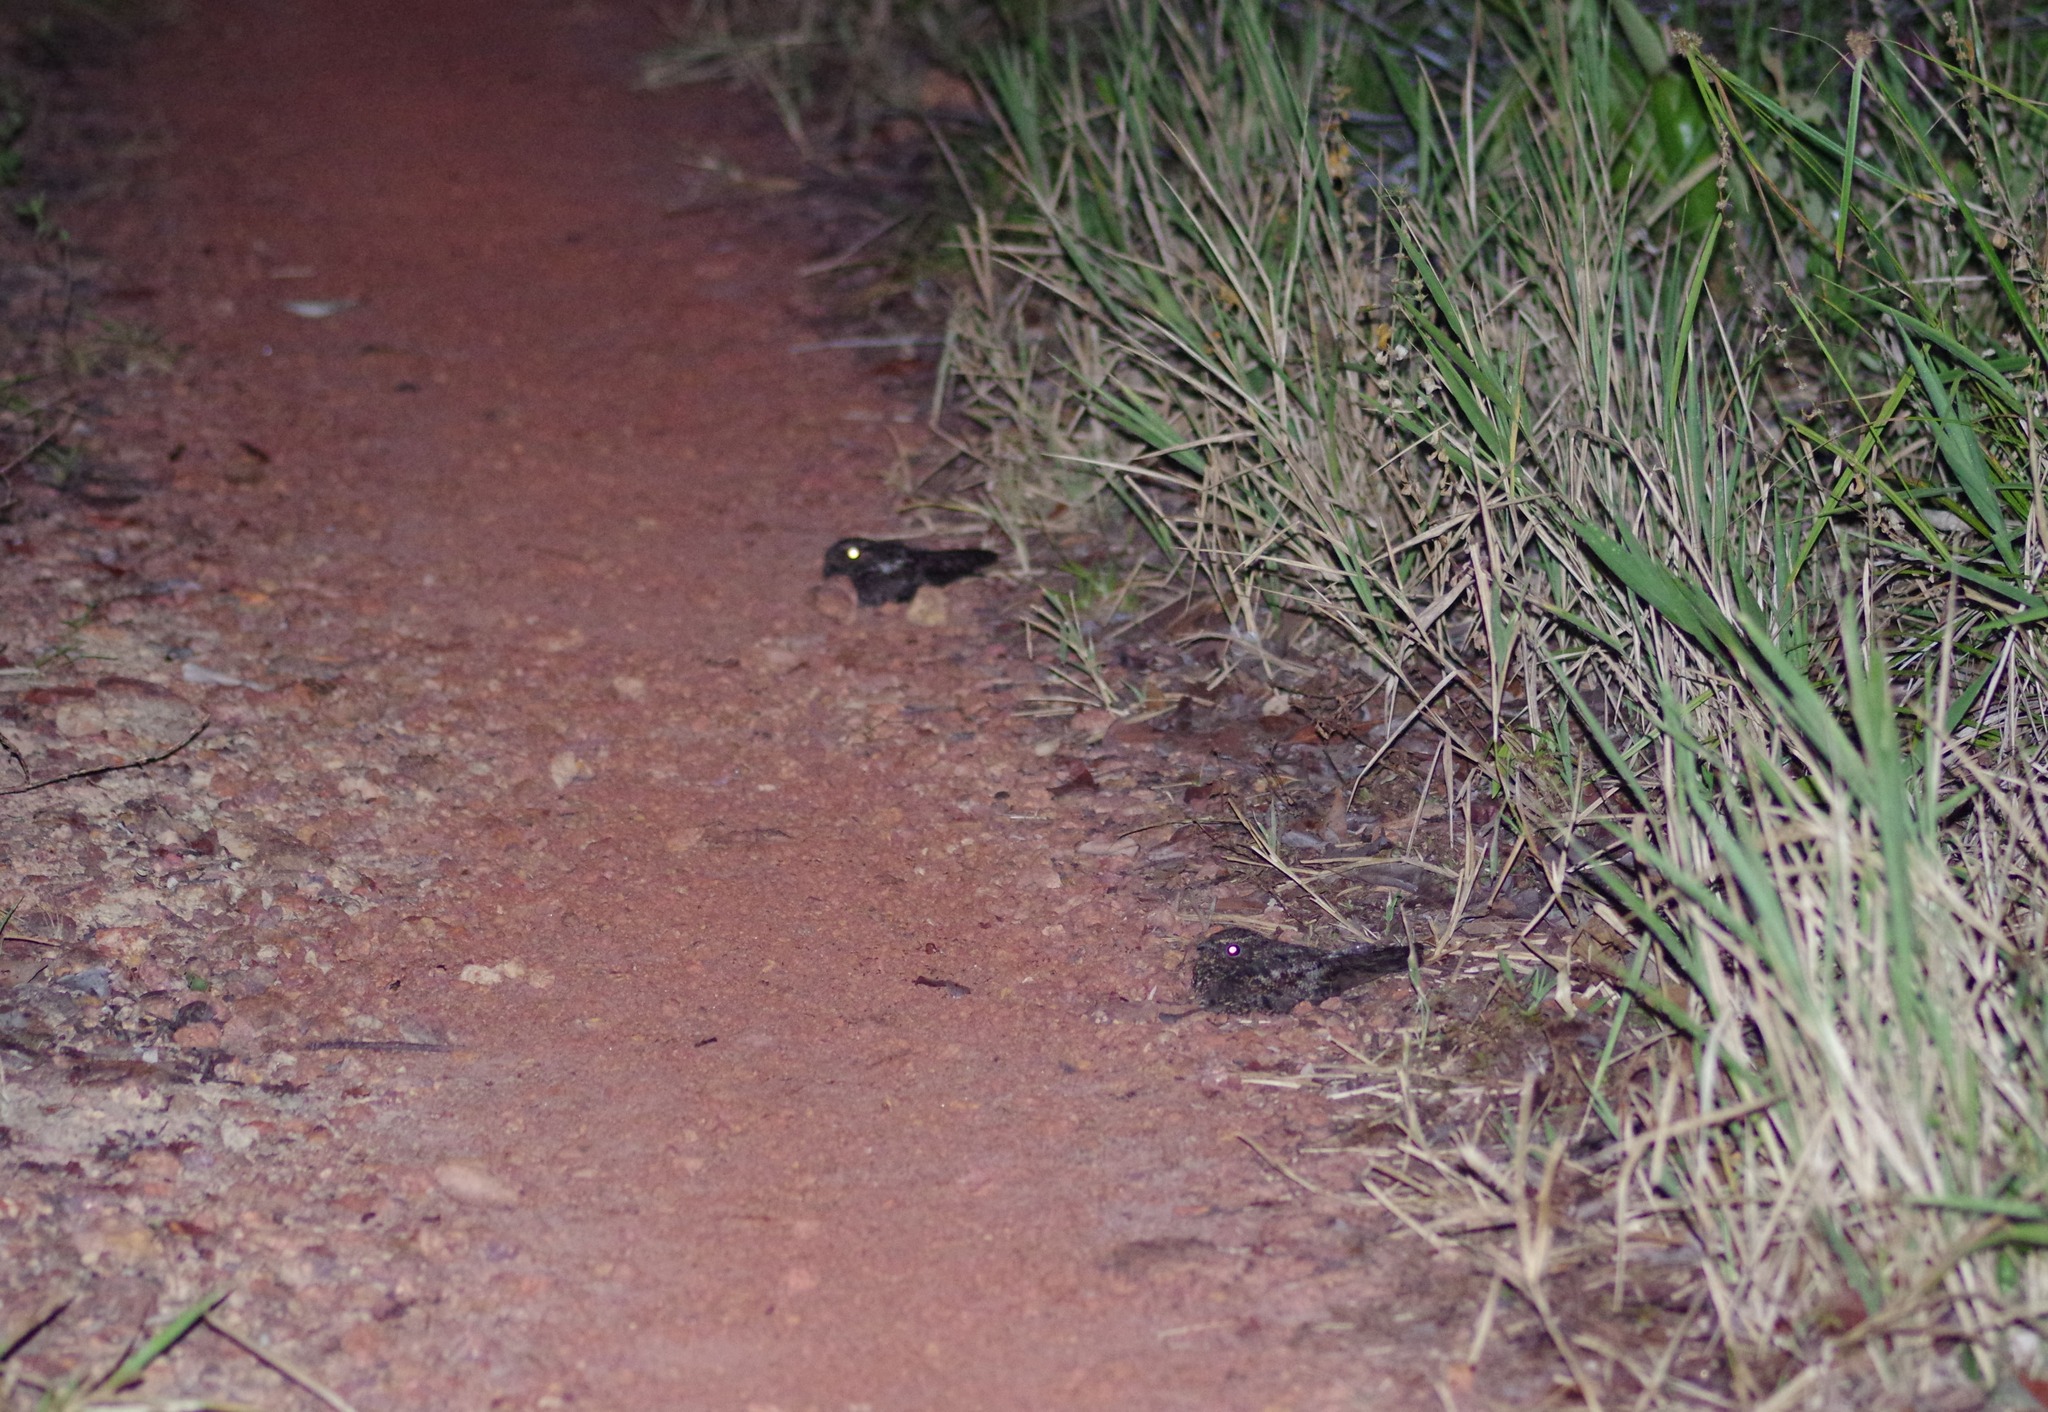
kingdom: Animalia
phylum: Chordata
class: Aves
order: Caprimulgiformes
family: Caprimulgidae
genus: Nyctipolus
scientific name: Nyctipolus nigrescens
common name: Blackish nightjar
